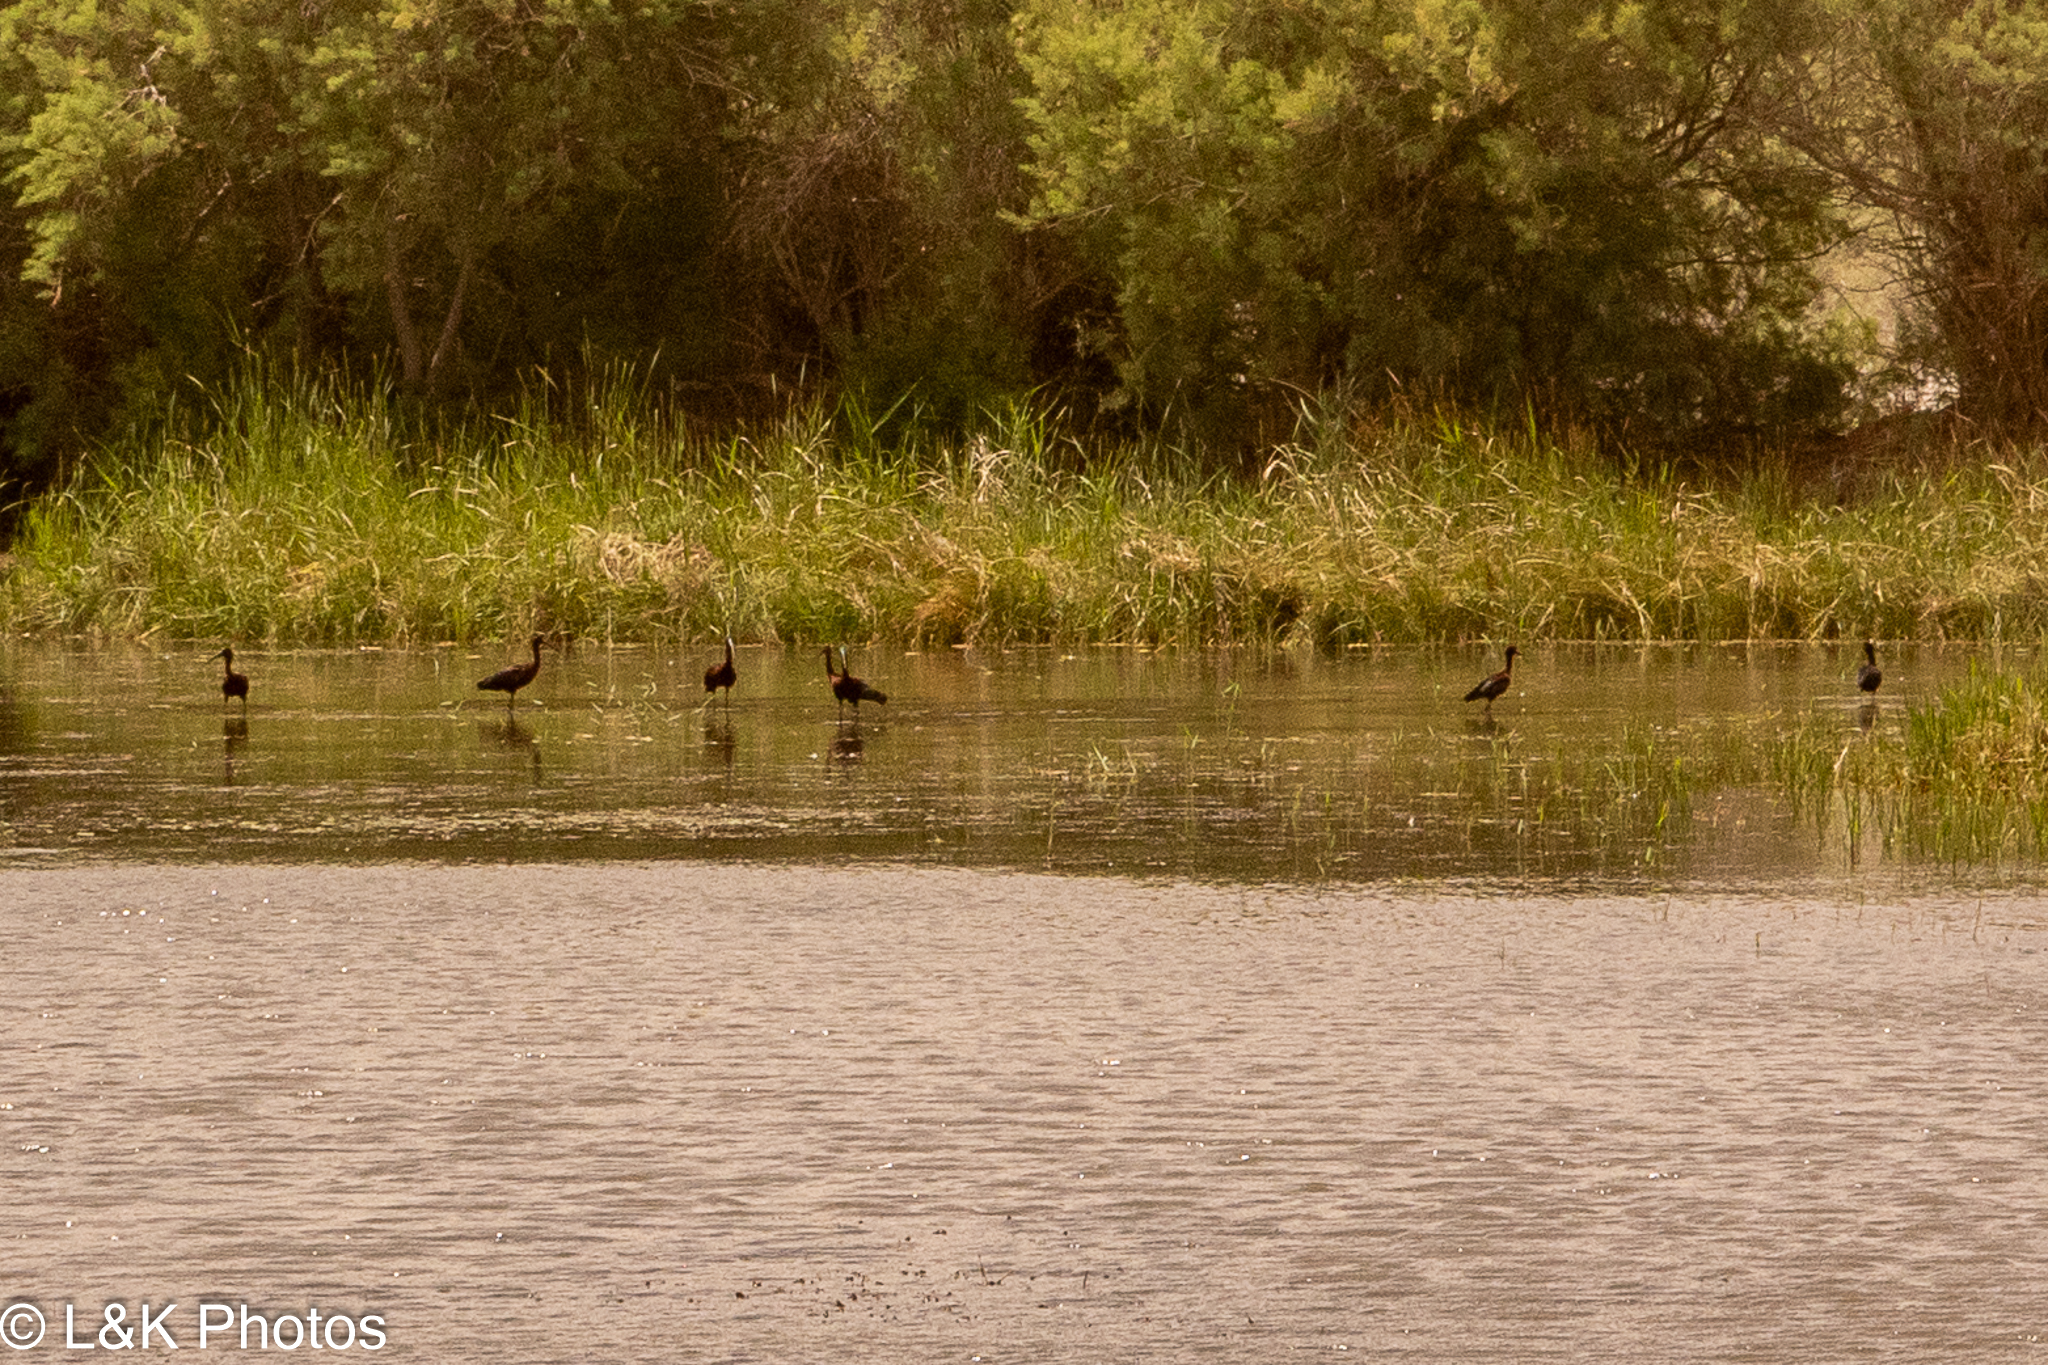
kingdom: Animalia
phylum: Chordata
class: Aves
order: Pelecaniformes
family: Threskiornithidae
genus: Plegadis
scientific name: Plegadis falcinellus
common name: Glossy ibis
